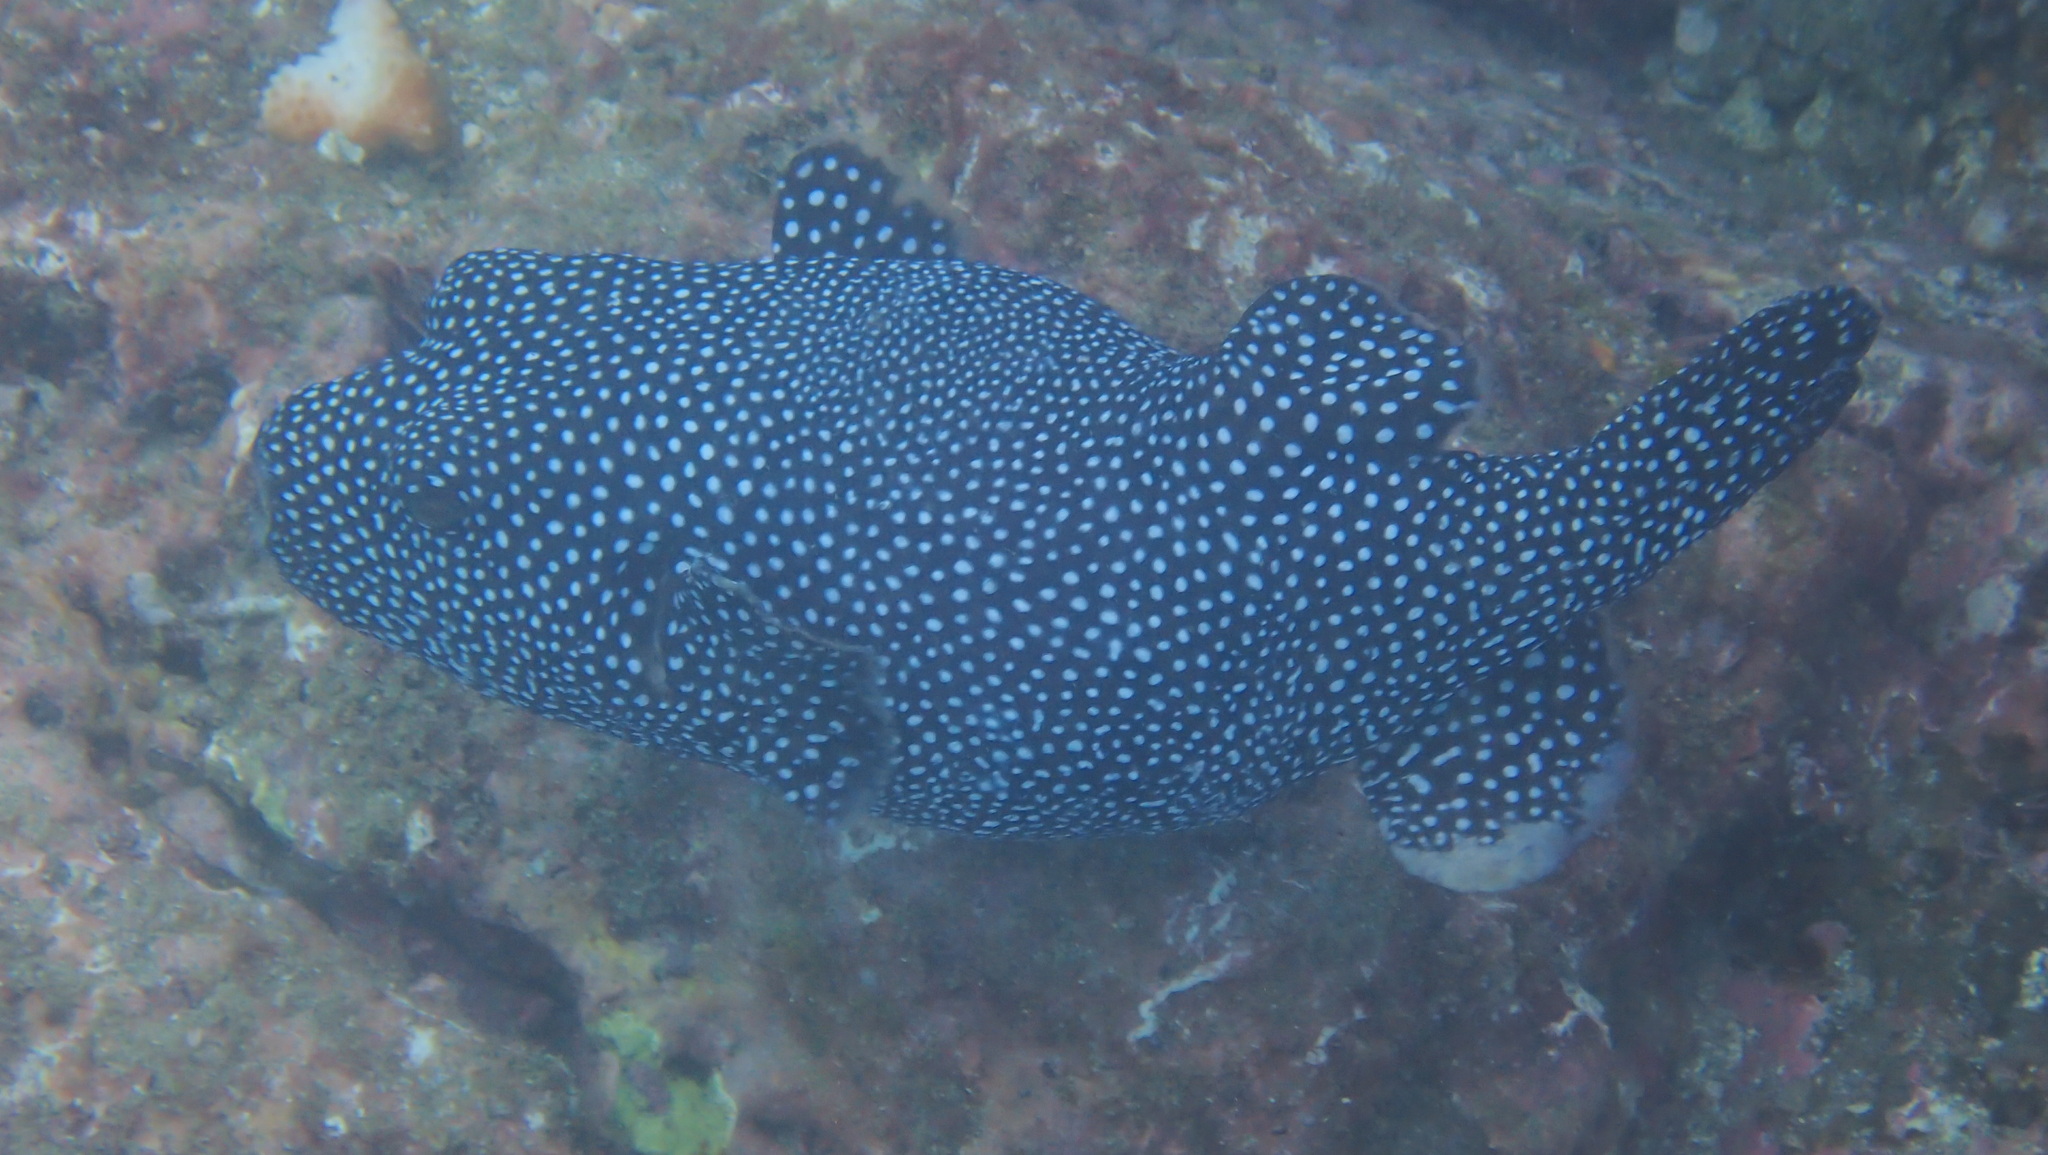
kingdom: Animalia
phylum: Chordata
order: Tetraodontiformes
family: Tetraodontidae
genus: Arothron
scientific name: Arothron meleagris
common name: Guinea-fowl pufferfish
